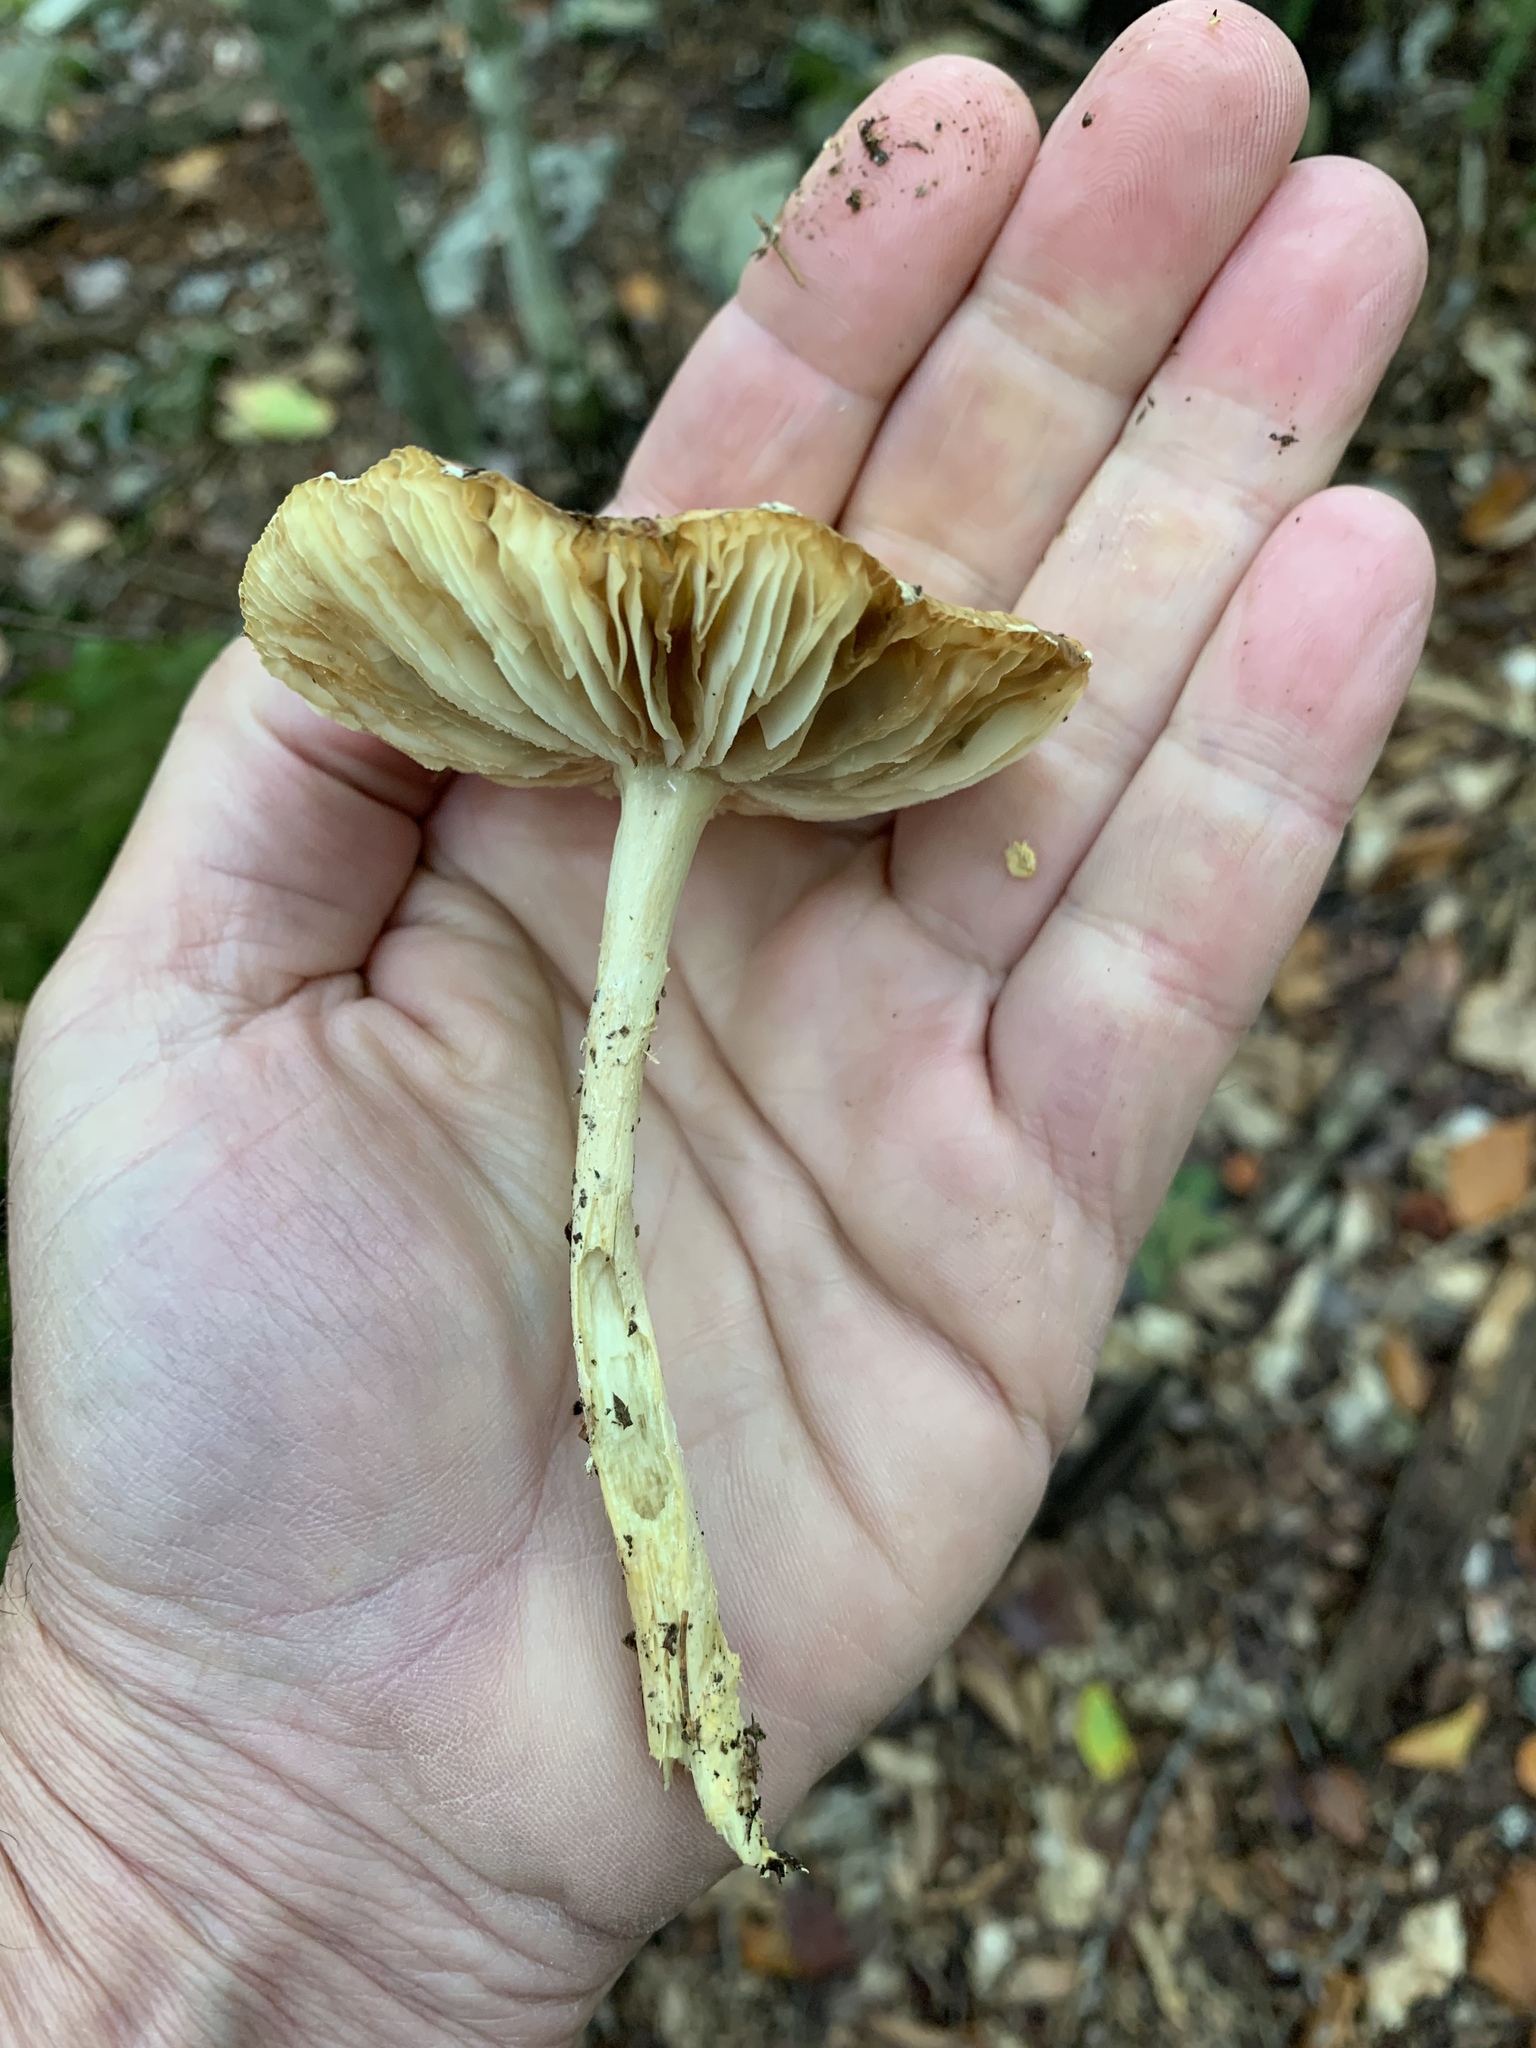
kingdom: Fungi
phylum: Basidiomycota
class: Agaricomycetes
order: Agaricales
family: Amanitaceae
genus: Amanita
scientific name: Amanita muscaria
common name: Fly agaric
